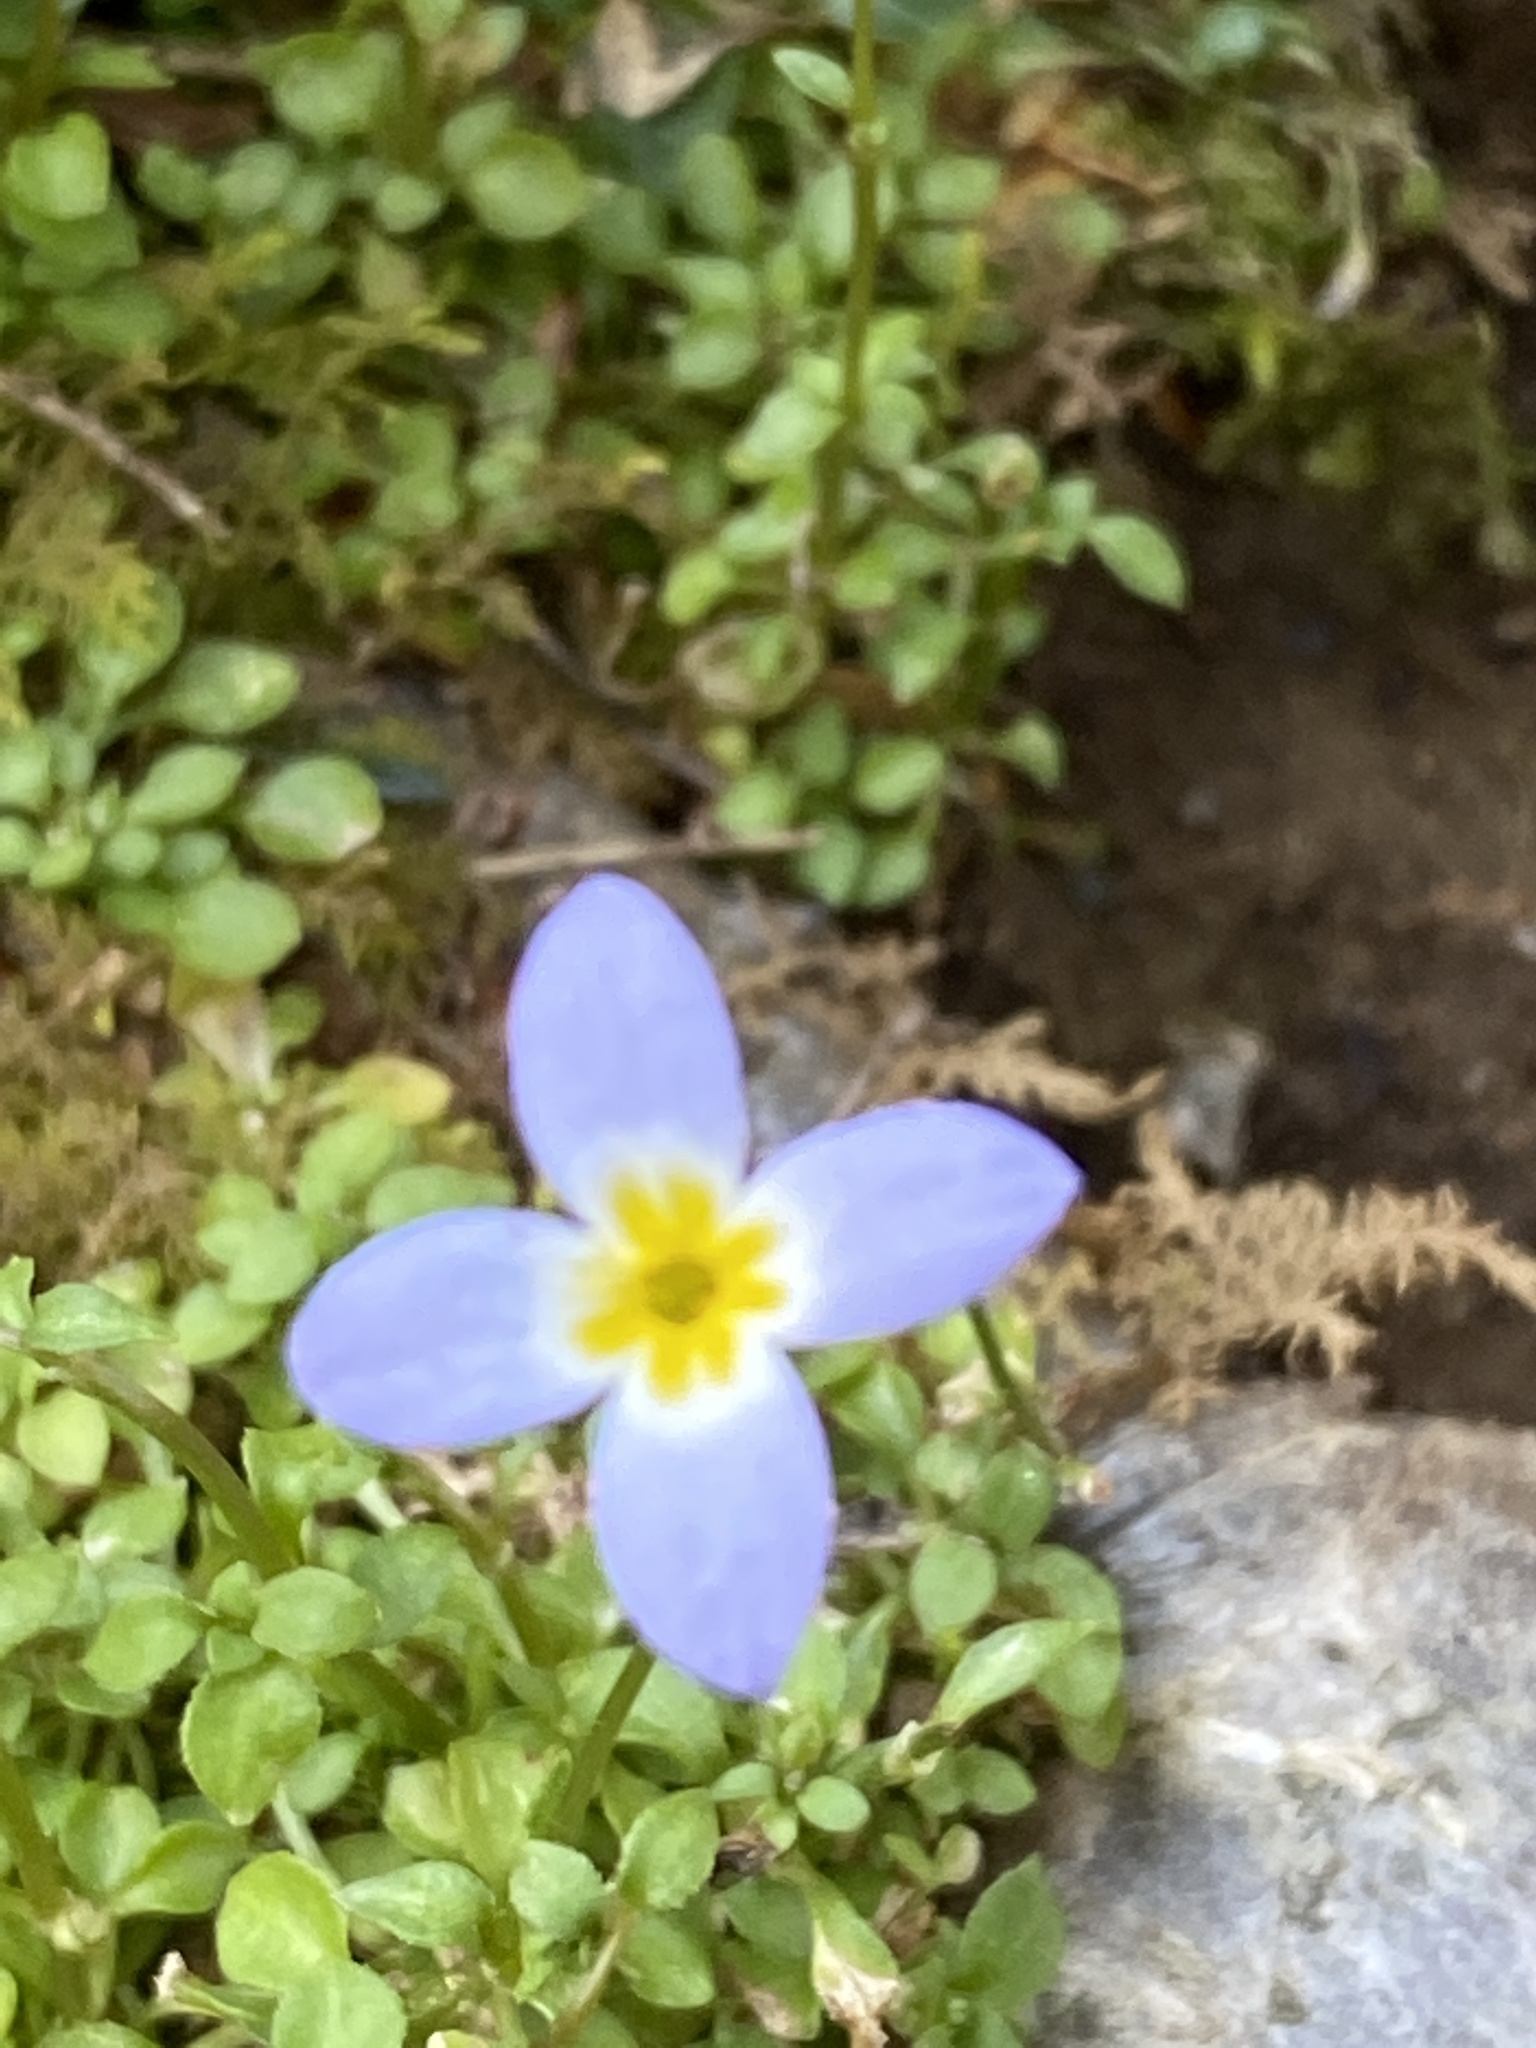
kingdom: Plantae
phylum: Tracheophyta
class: Magnoliopsida
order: Gentianales
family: Rubiaceae
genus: Houstonia
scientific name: Houstonia serpyllifolia
